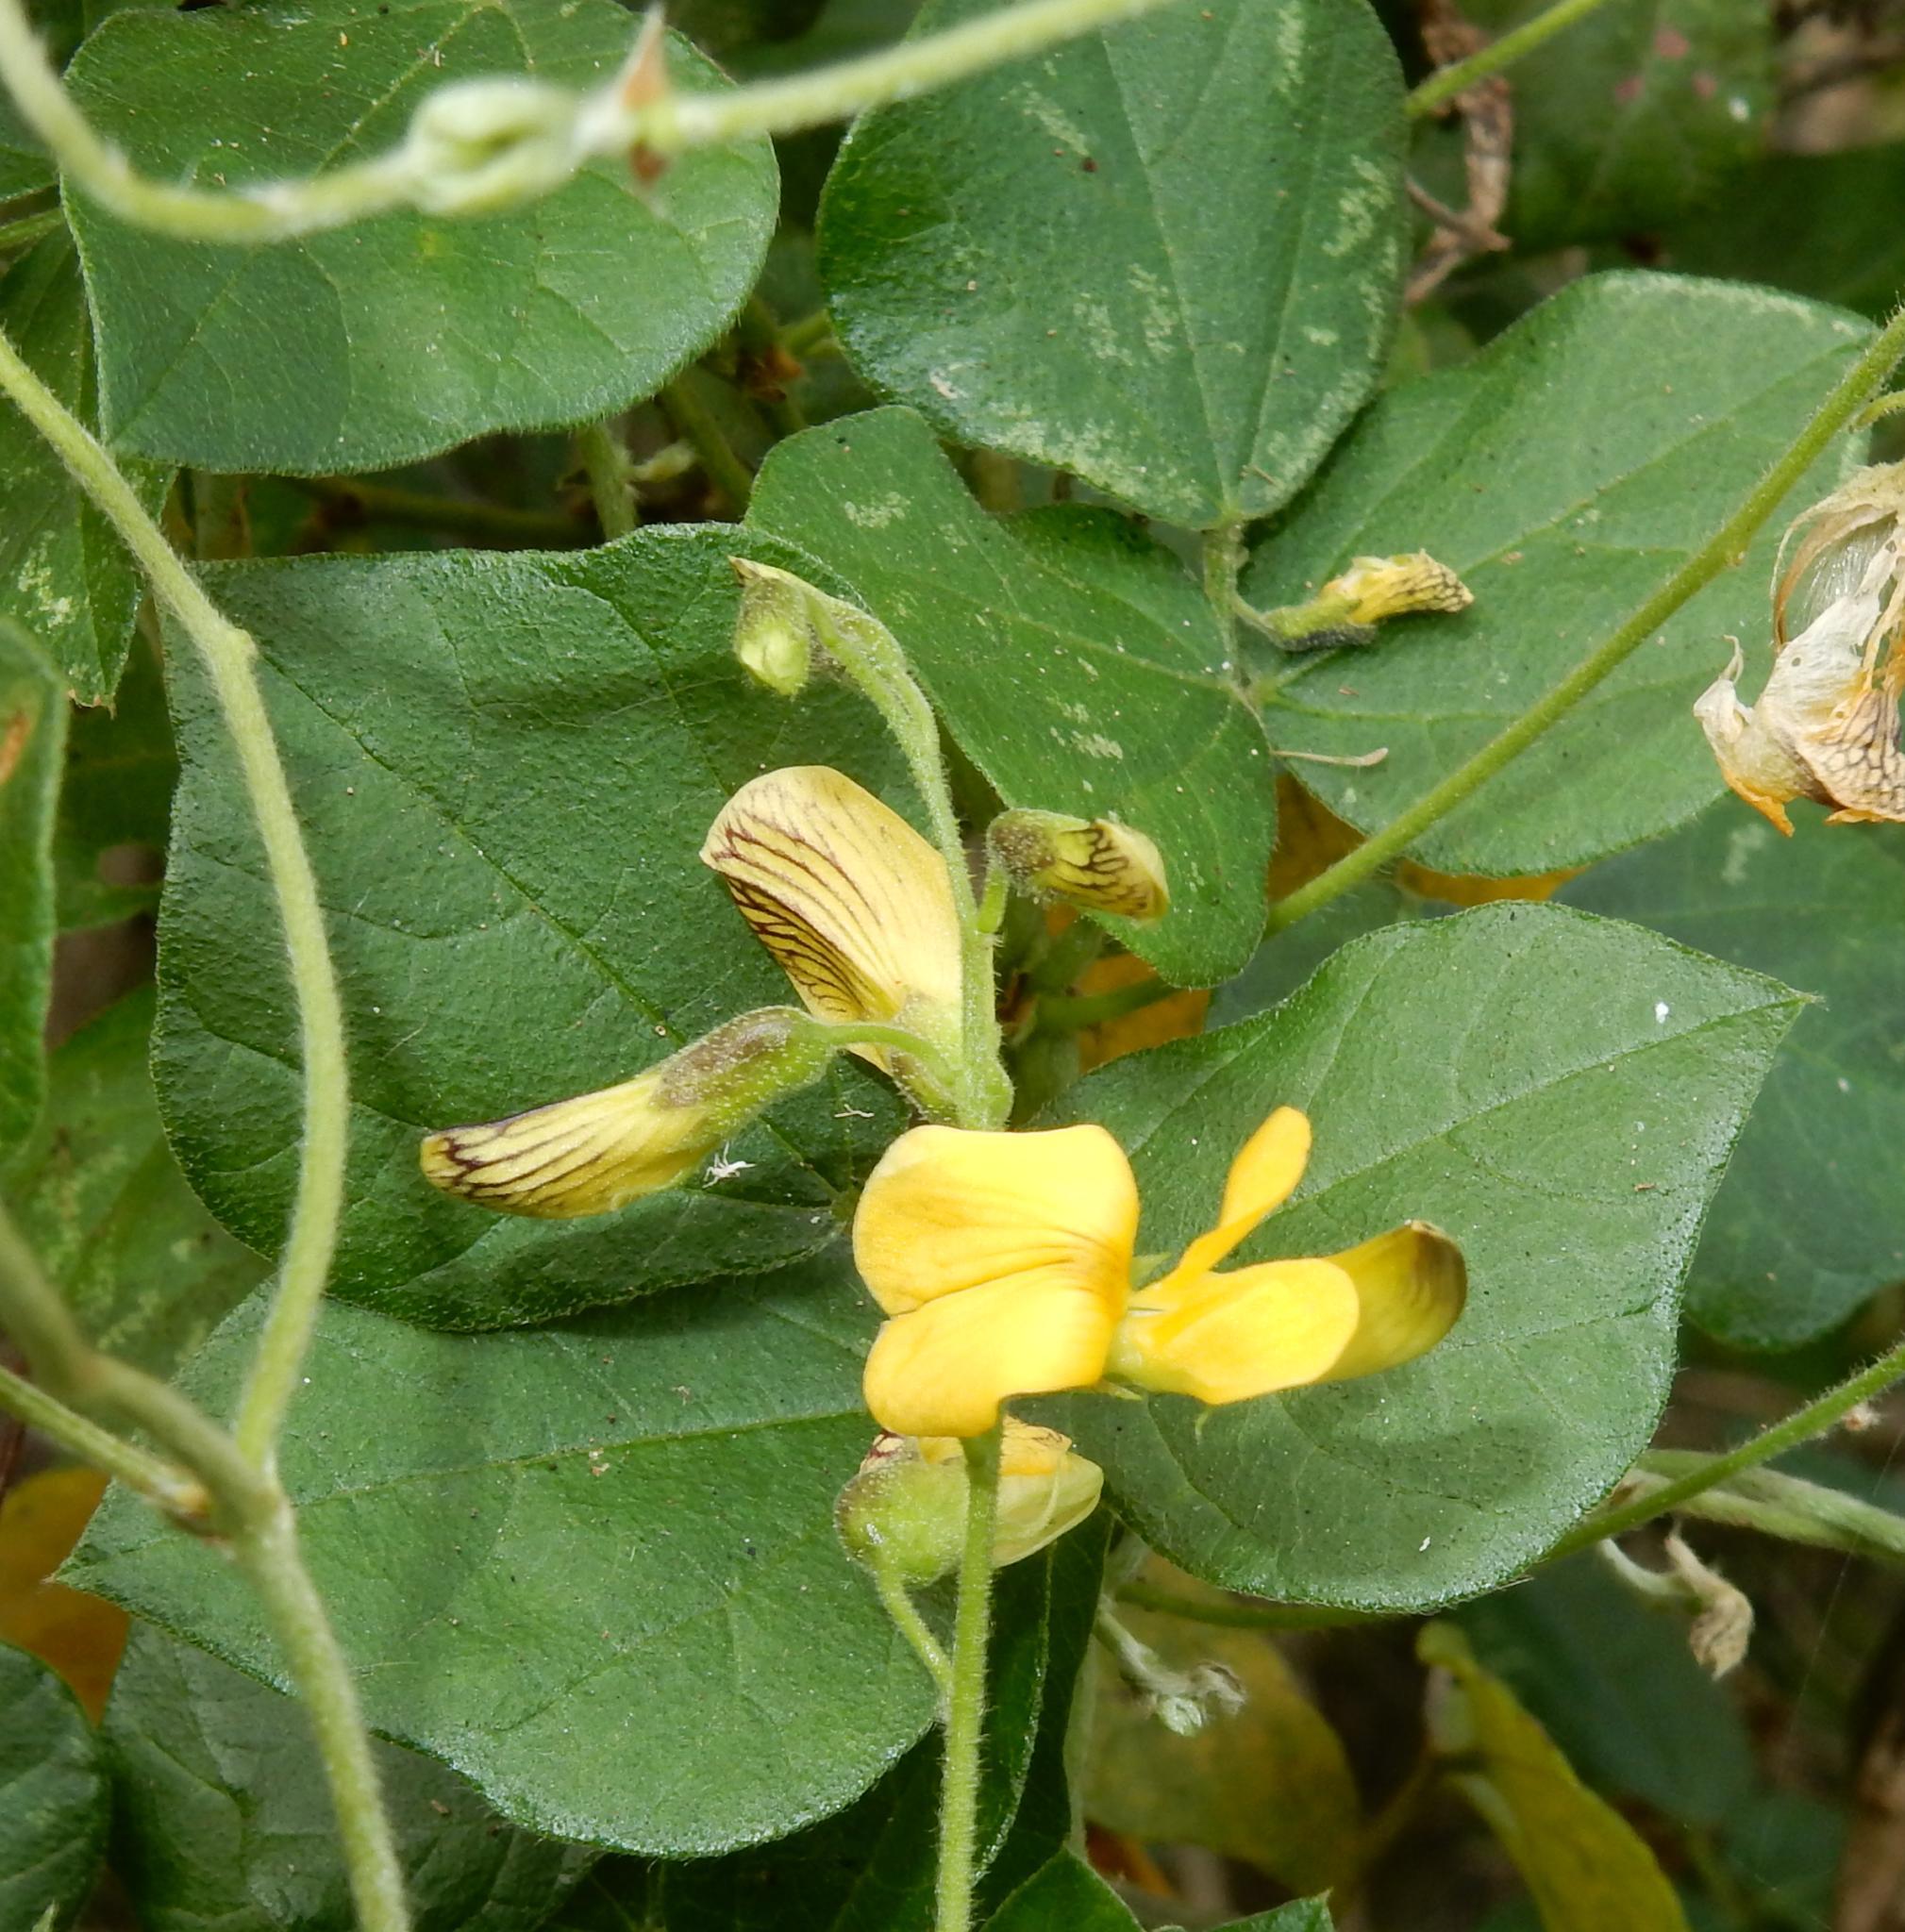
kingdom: Plantae
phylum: Tracheophyta
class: Magnoliopsida
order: Fabales
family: Fabaceae
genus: Rhynchosia
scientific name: Rhynchosia caribaea
